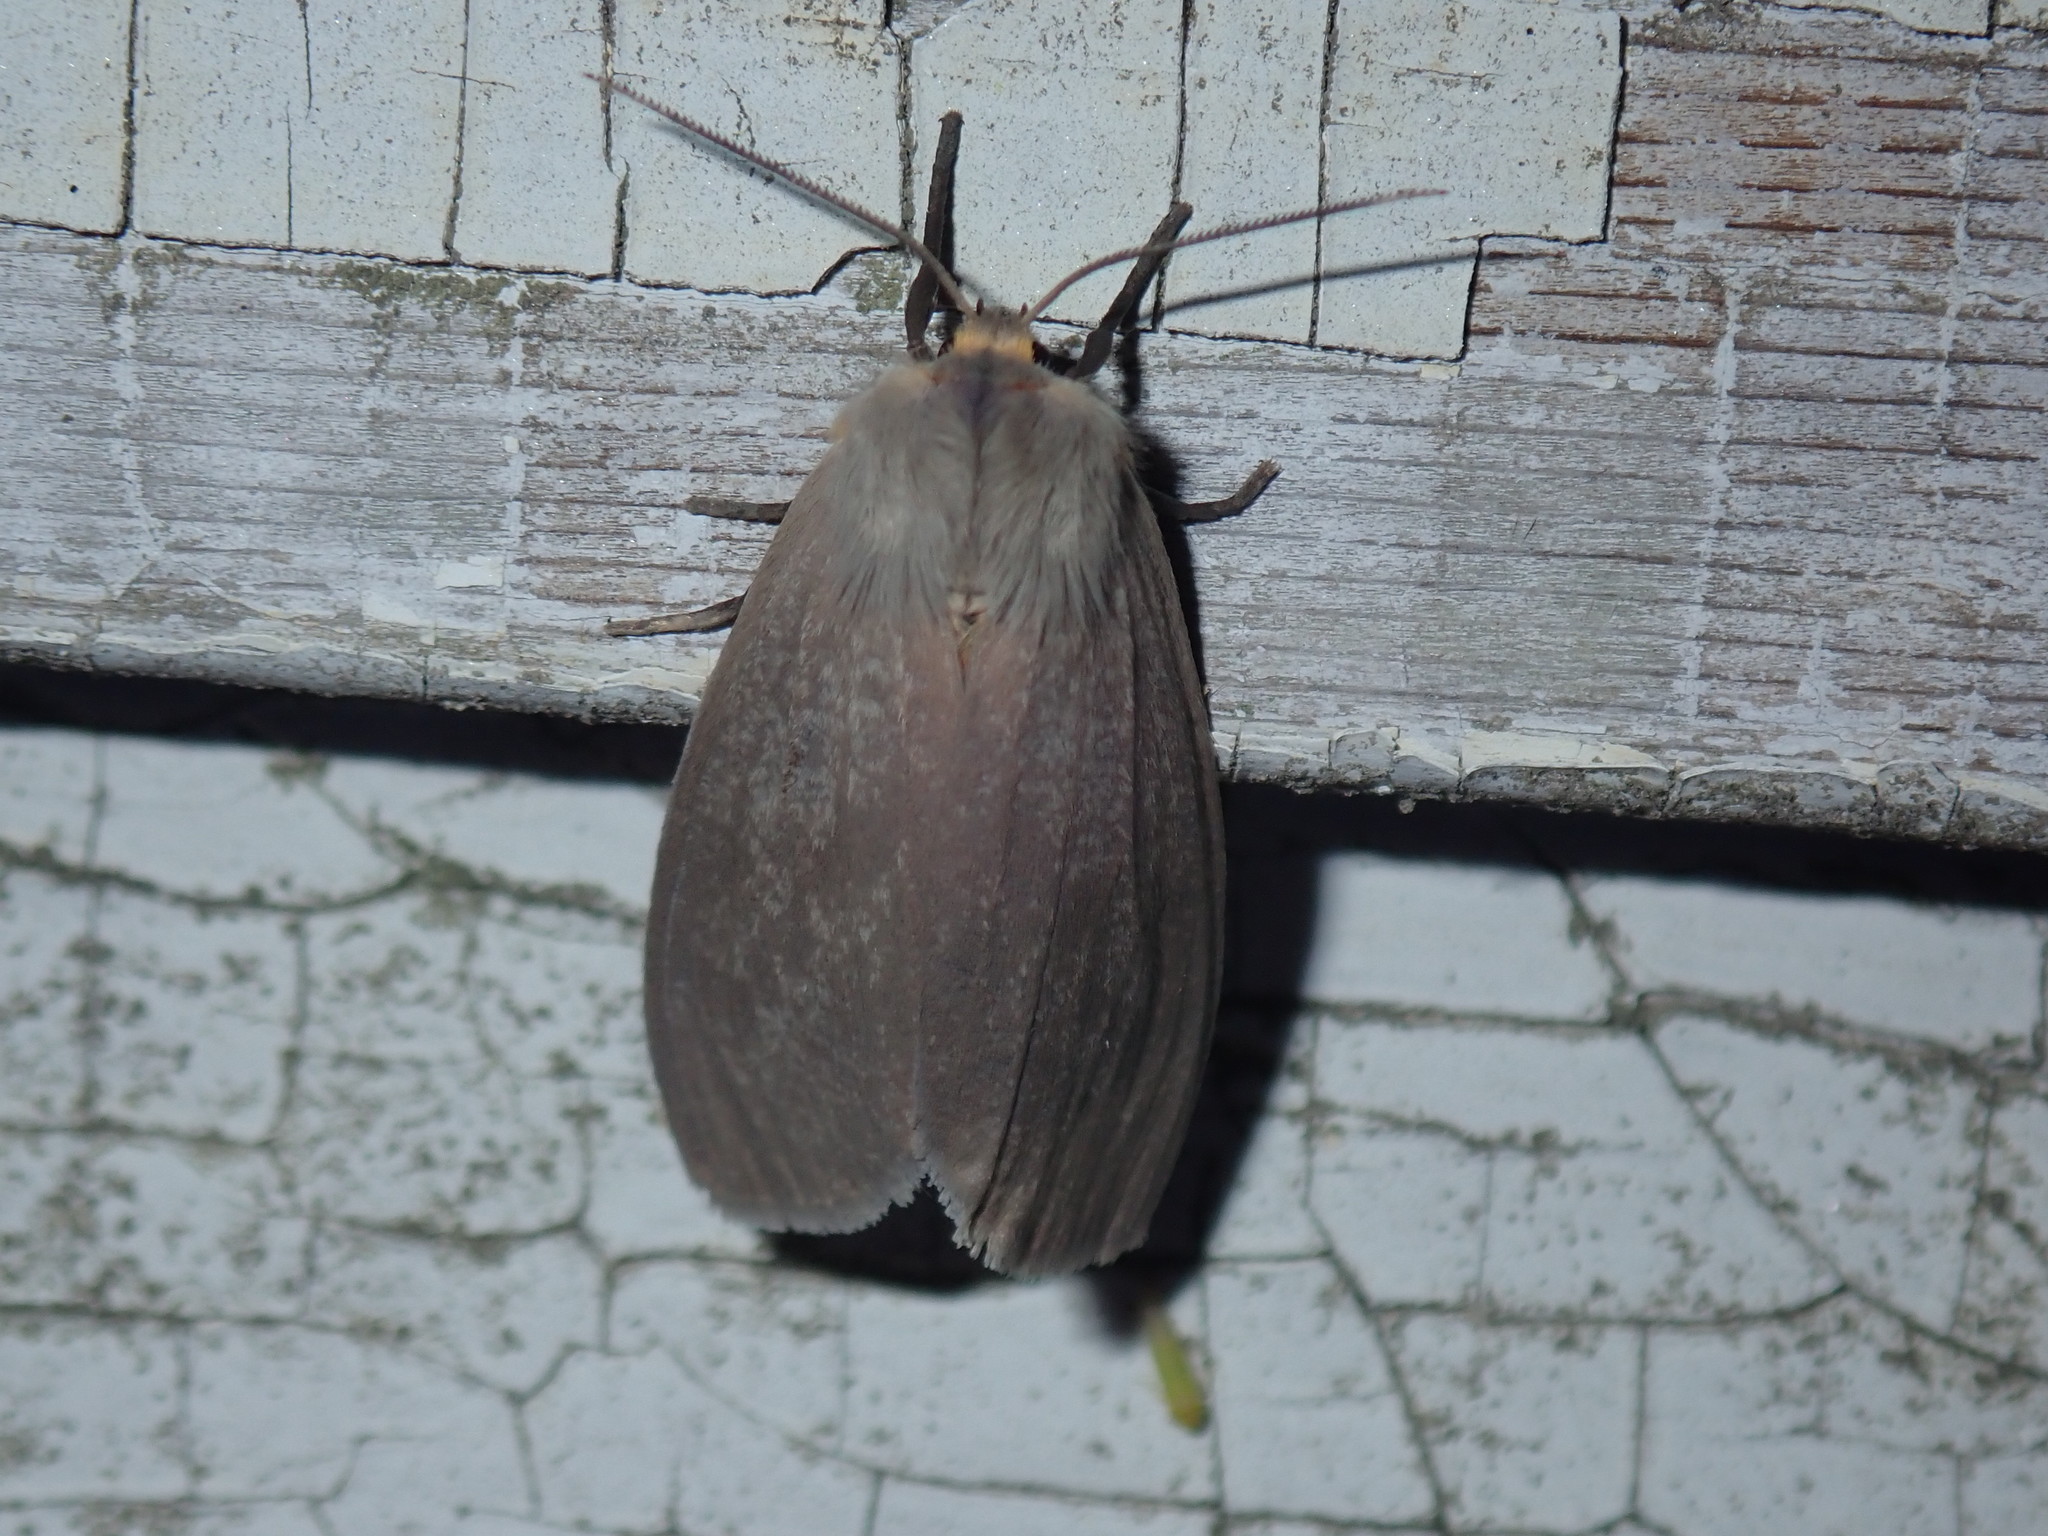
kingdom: Animalia
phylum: Arthropoda
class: Insecta
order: Lepidoptera
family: Erebidae
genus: Euchaetes
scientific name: Euchaetes egle
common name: Milkweed tussock moth
